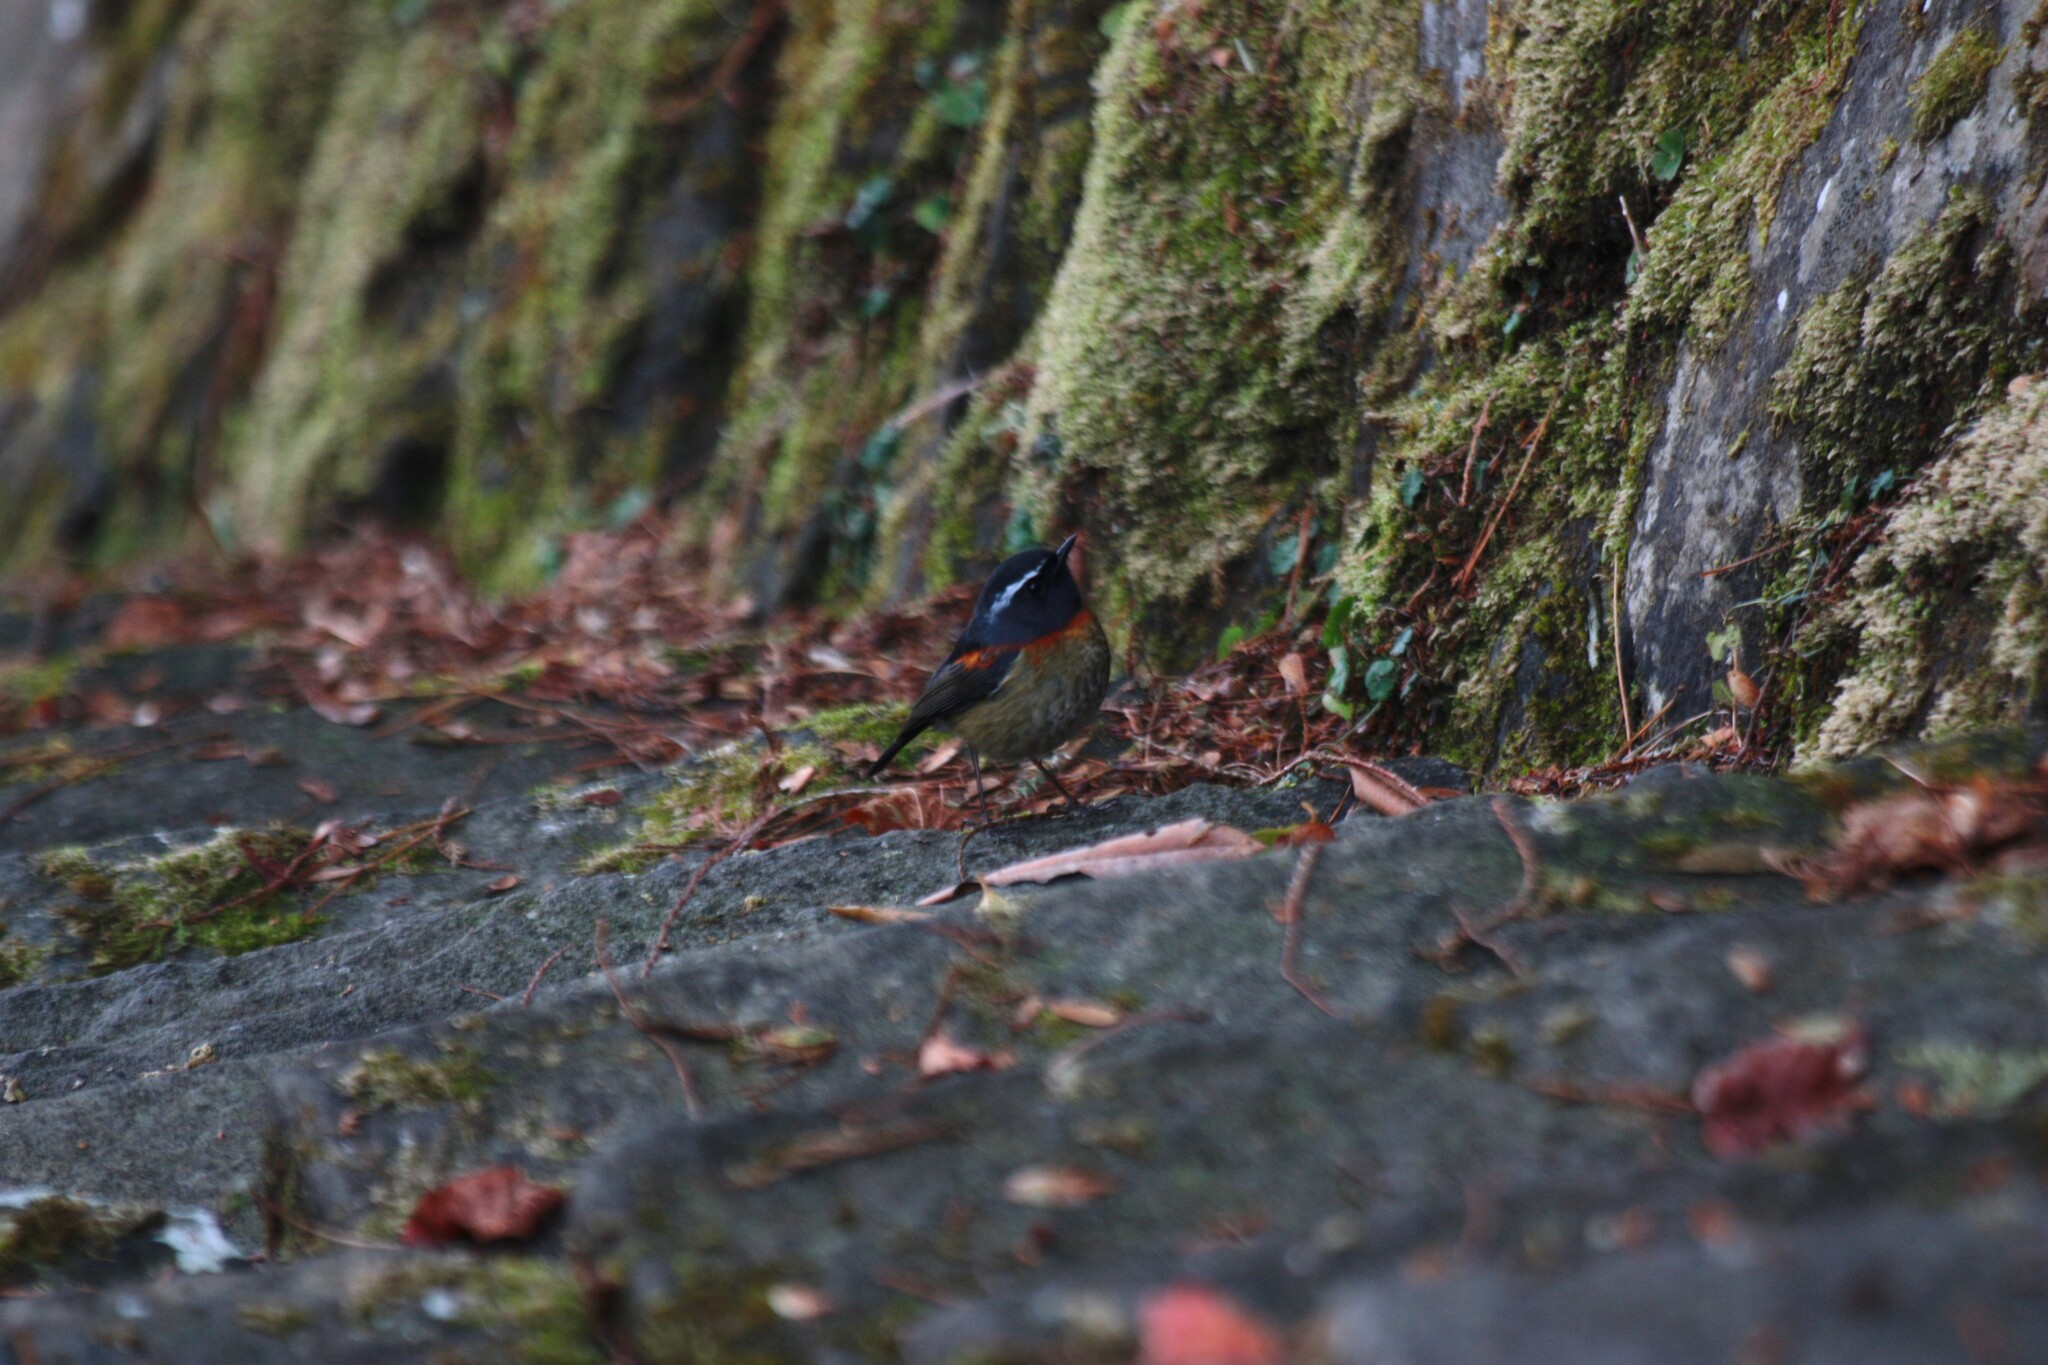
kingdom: Animalia
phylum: Chordata
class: Aves
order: Passeriformes
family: Muscicapidae
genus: Tarsiger
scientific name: Tarsiger johnstoniae
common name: Collared bush robin
